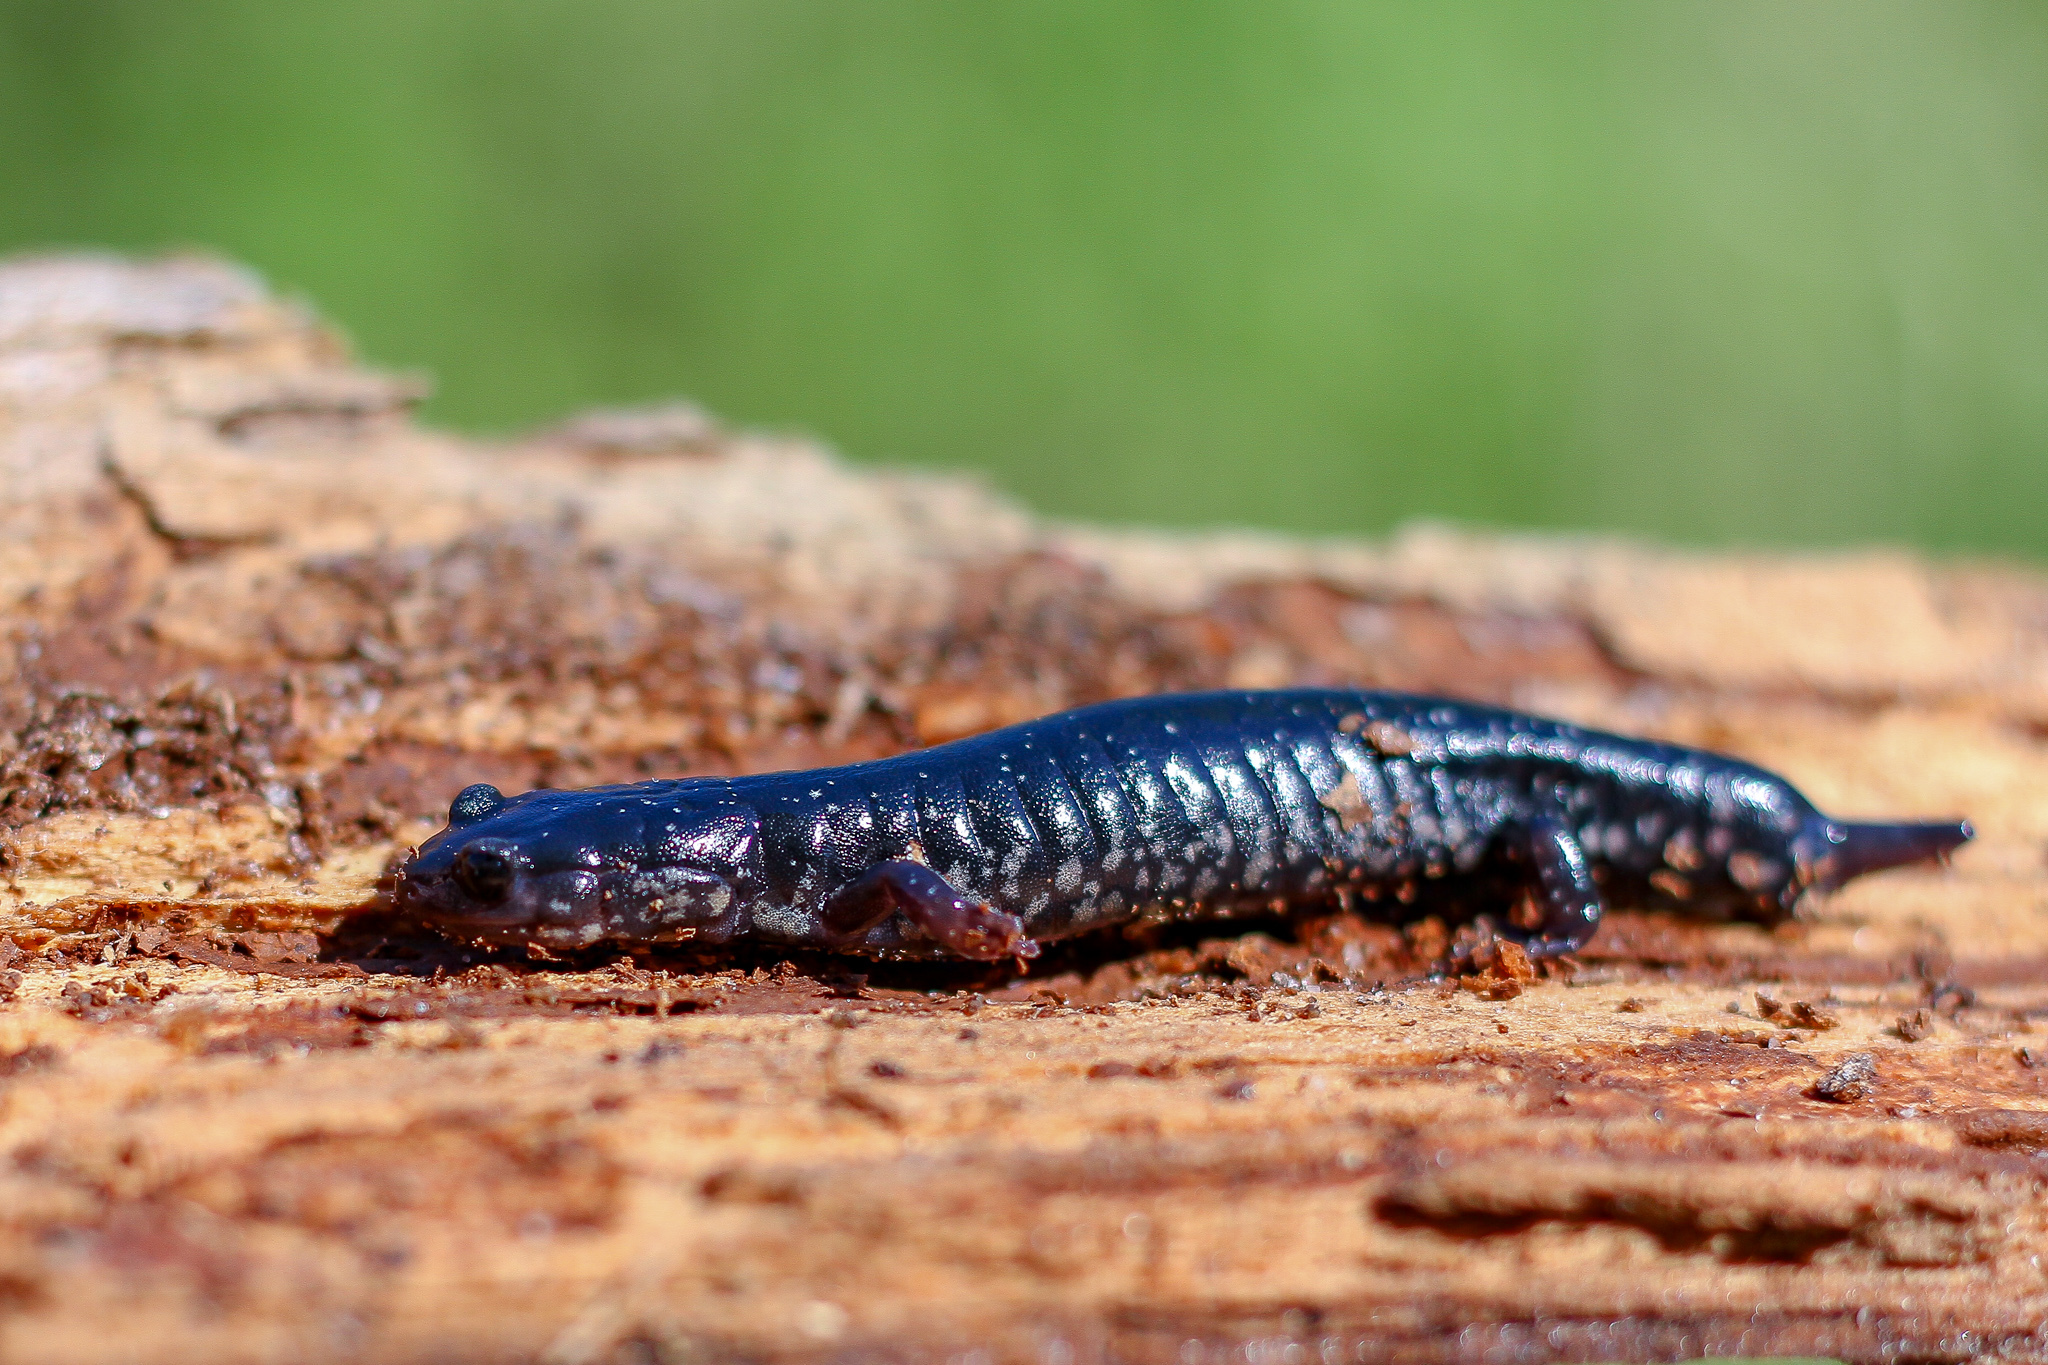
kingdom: Animalia
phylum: Chordata
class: Amphibia
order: Caudata
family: Plethodontidae
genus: Plethodon
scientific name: Plethodon chlorobryonis
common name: Atlantic coast slimy salamander
